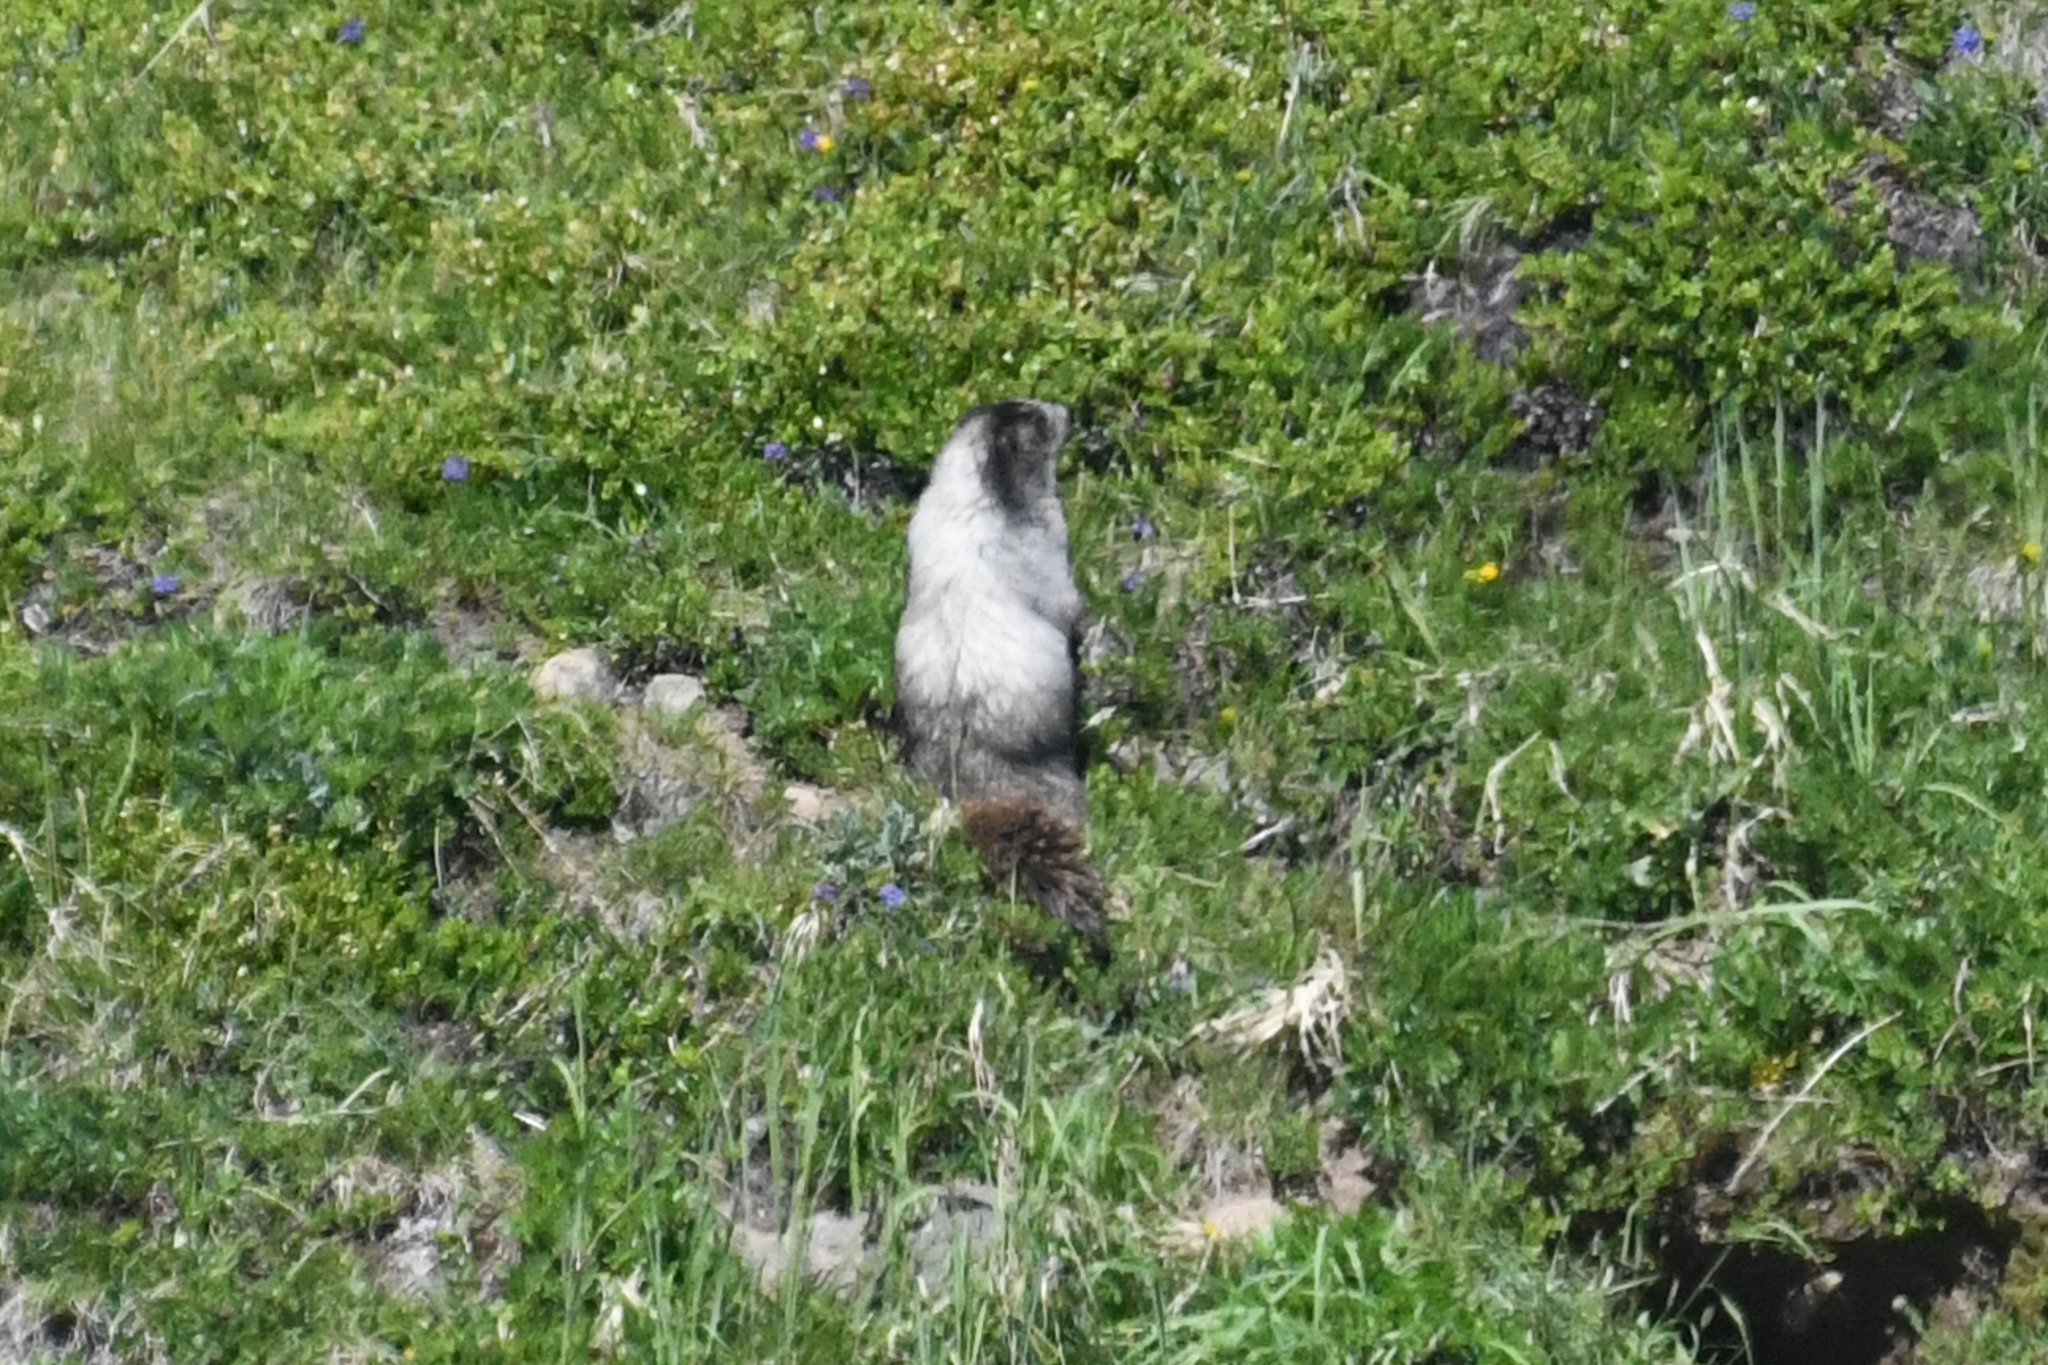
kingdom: Animalia
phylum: Chordata
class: Mammalia
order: Rodentia
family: Sciuridae
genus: Marmota
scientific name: Marmota caligata
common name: Hoary marmot
